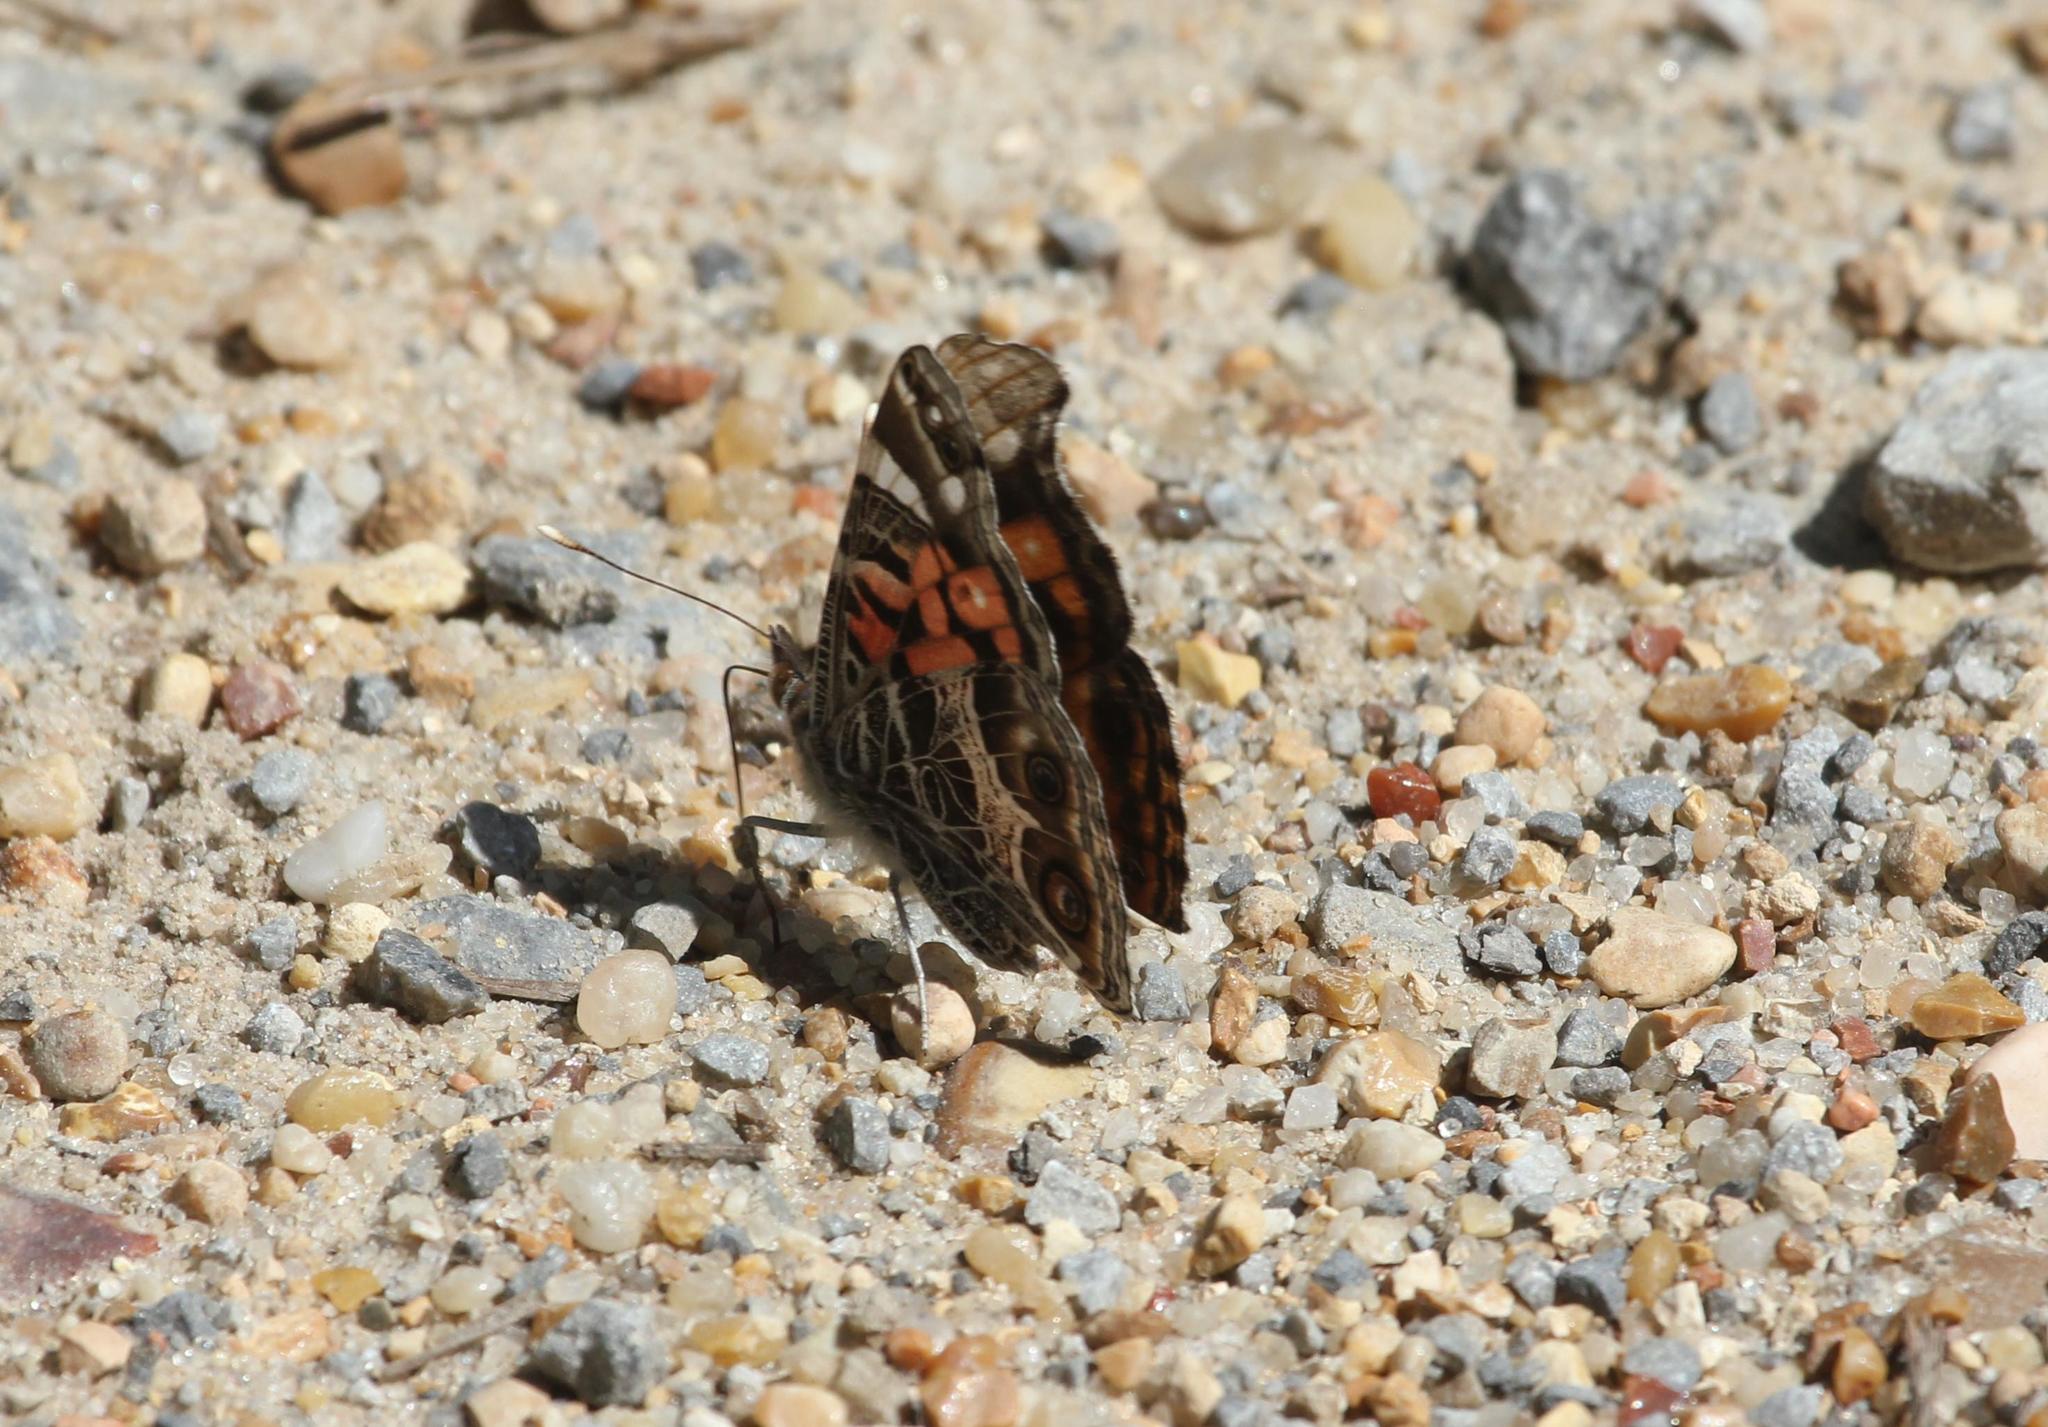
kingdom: Animalia
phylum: Arthropoda
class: Insecta
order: Lepidoptera
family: Nymphalidae
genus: Vanessa
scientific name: Vanessa virginiensis
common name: American lady
